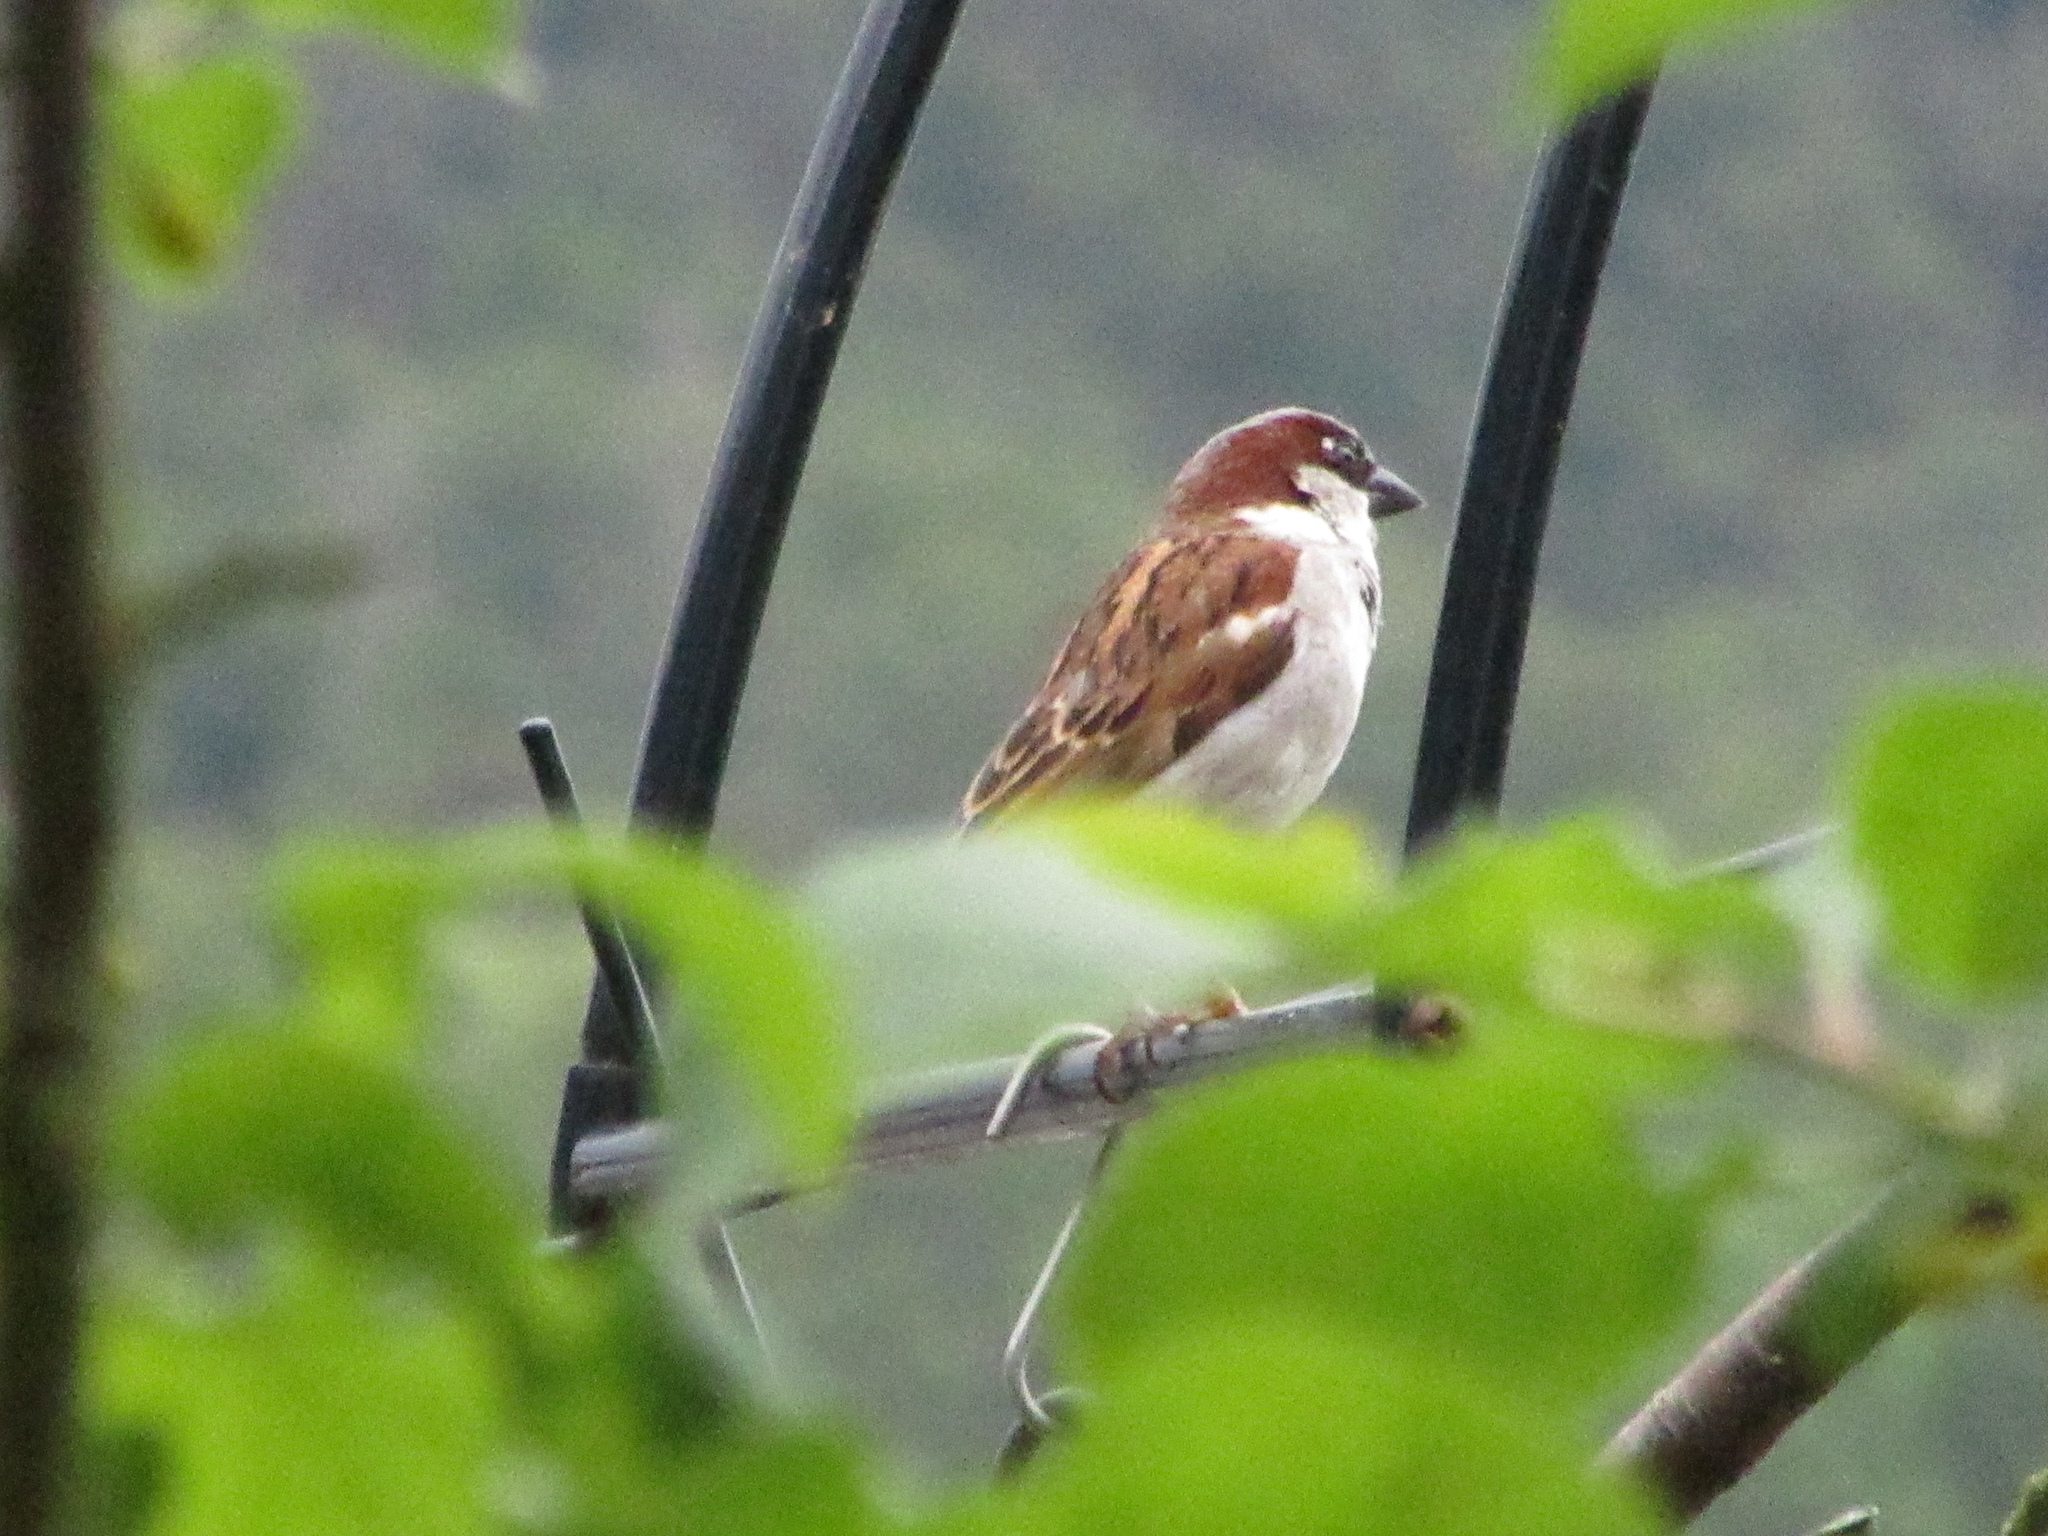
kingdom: Animalia
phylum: Chordata
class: Aves
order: Passeriformes
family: Passeridae
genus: Passer
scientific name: Passer domesticus
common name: House sparrow
